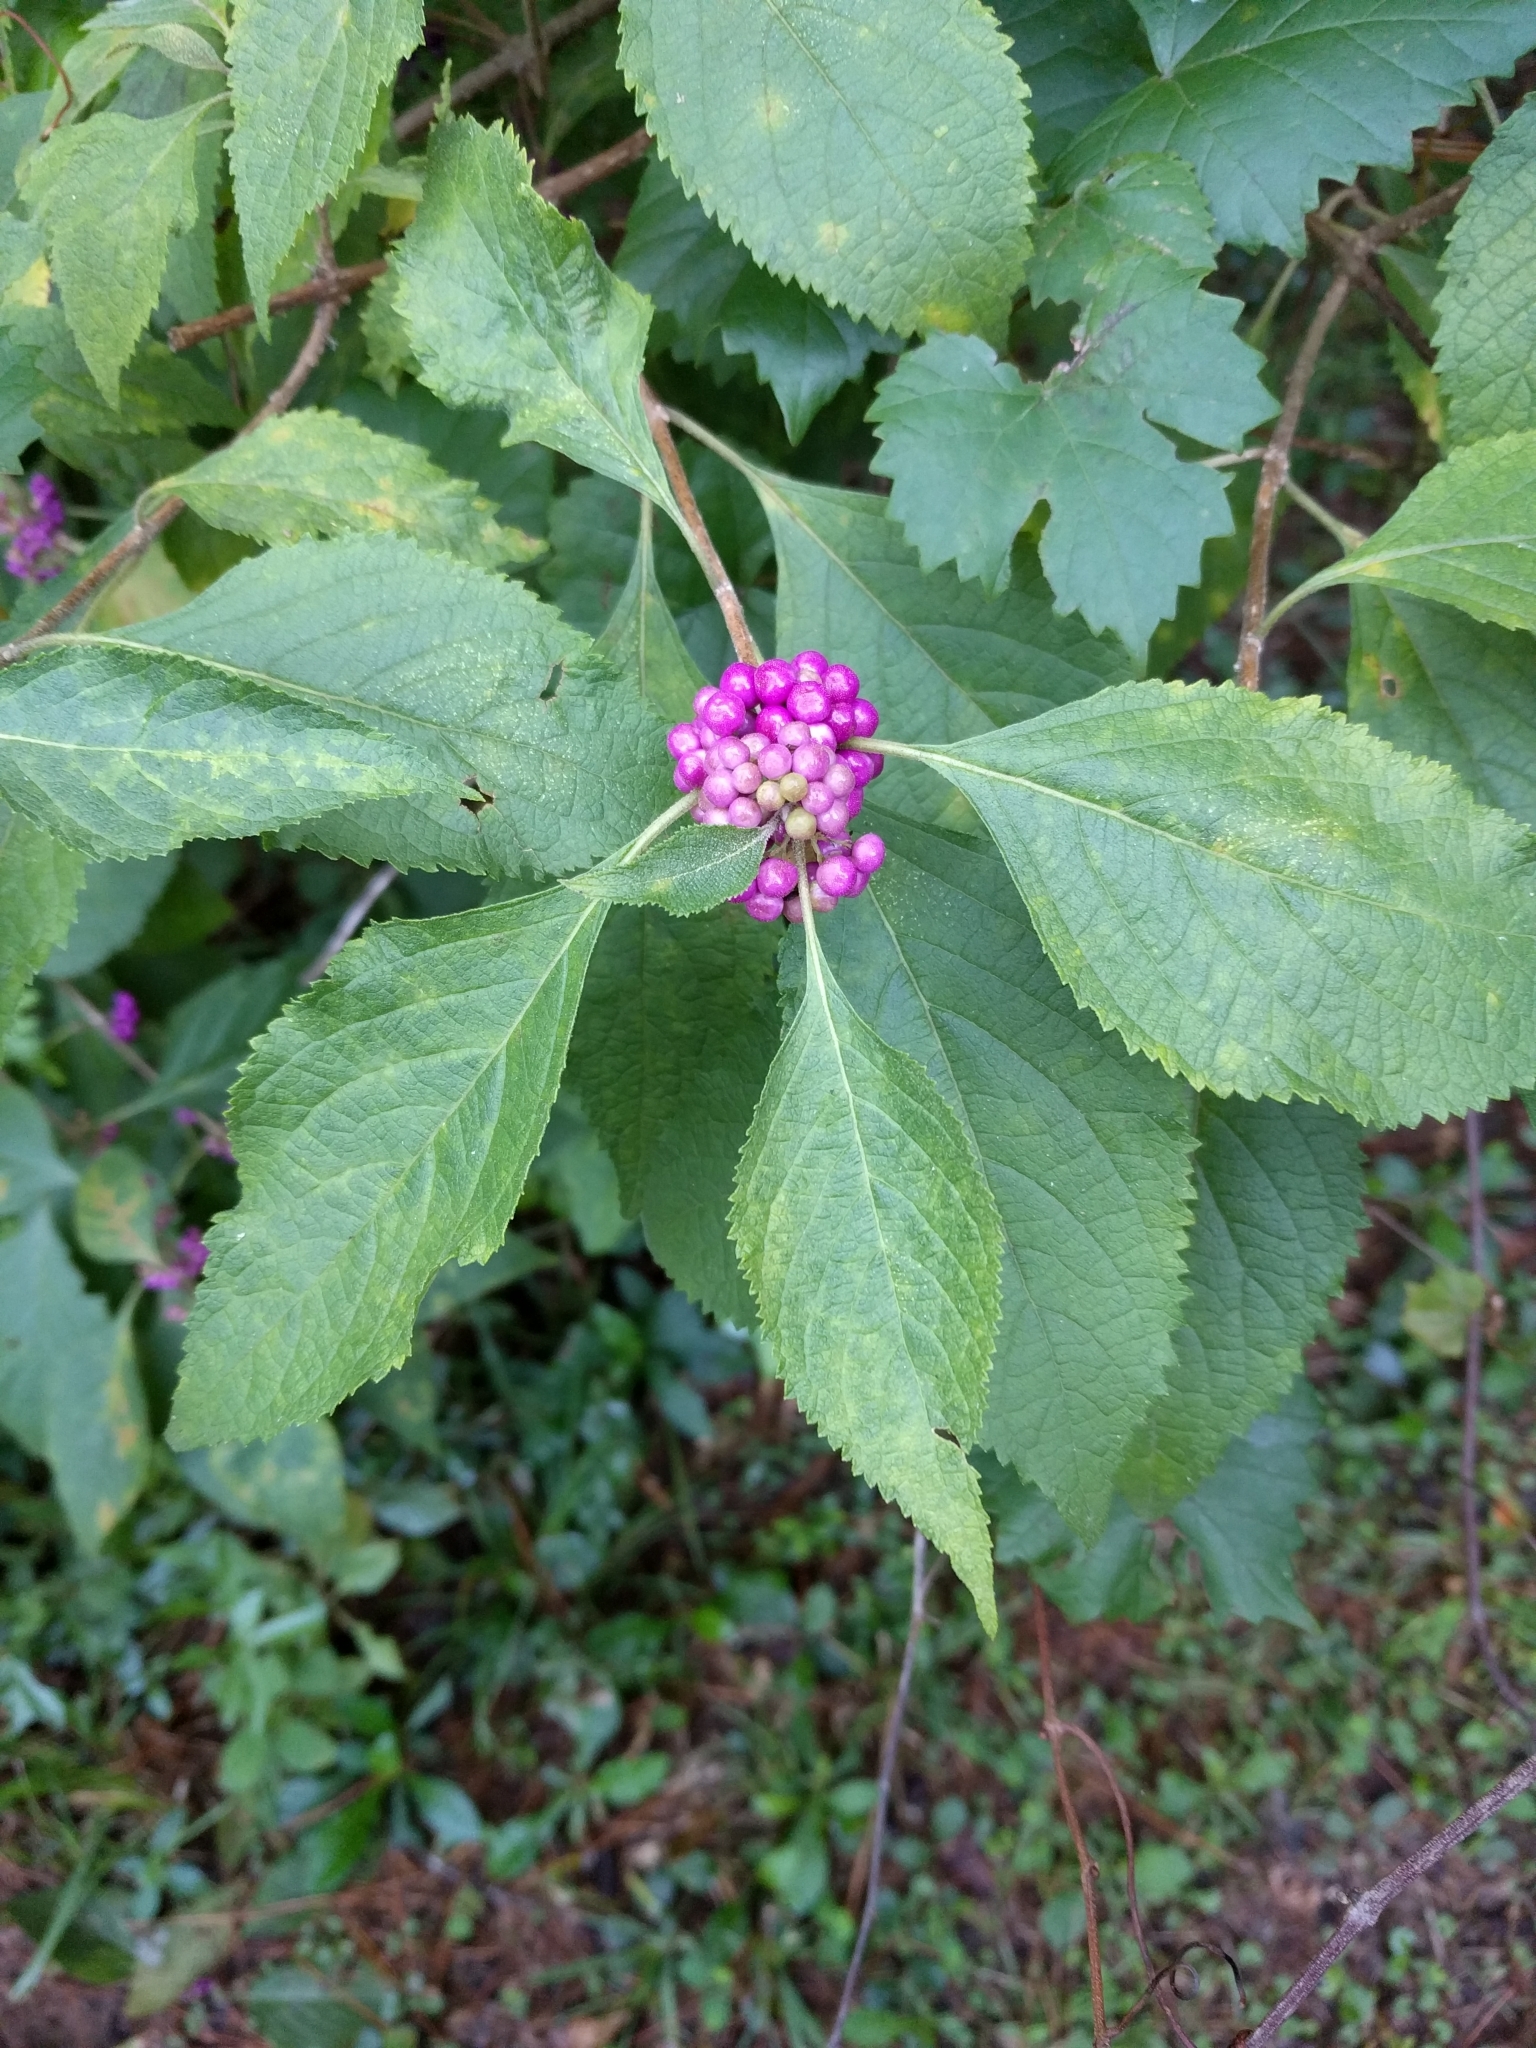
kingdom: Plantae
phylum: Tracheophyta
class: Magnoliopsida
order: Lamiales
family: Lamiaceae
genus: Callicarpa
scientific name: Callicarpa americana
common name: American beautyberry
